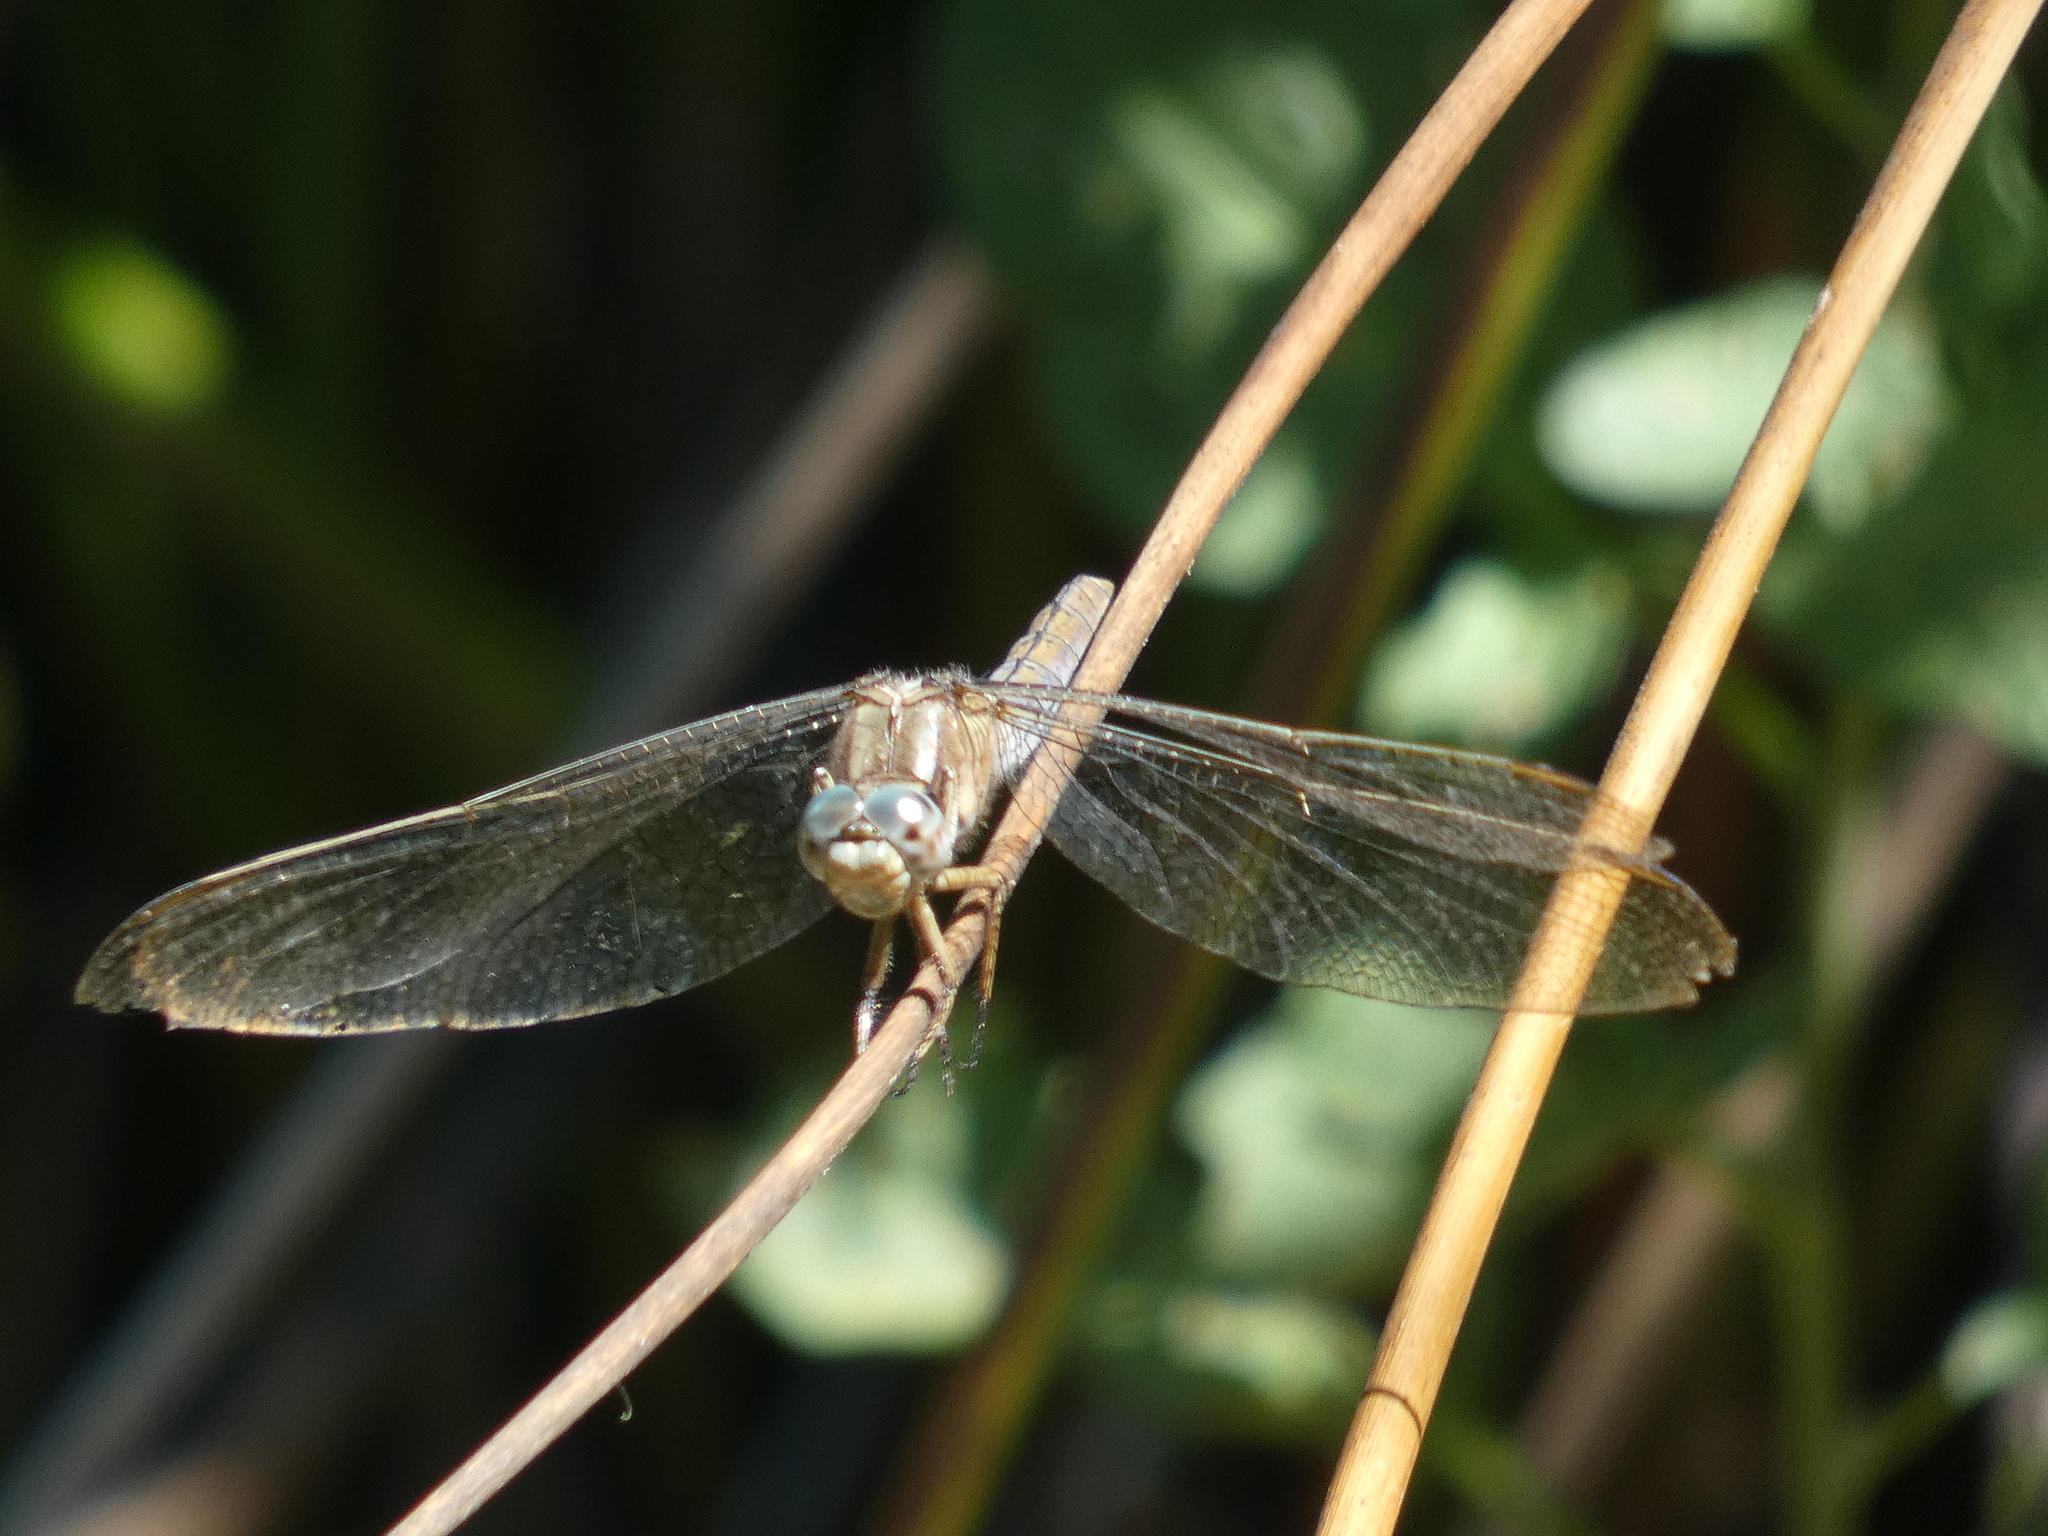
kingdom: Animalia
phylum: Arthropoda
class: Insecta
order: Odonata
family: Libellulidae
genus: Orthetrum
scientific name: Orthetrum coerulescens
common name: Keeled skimmer
